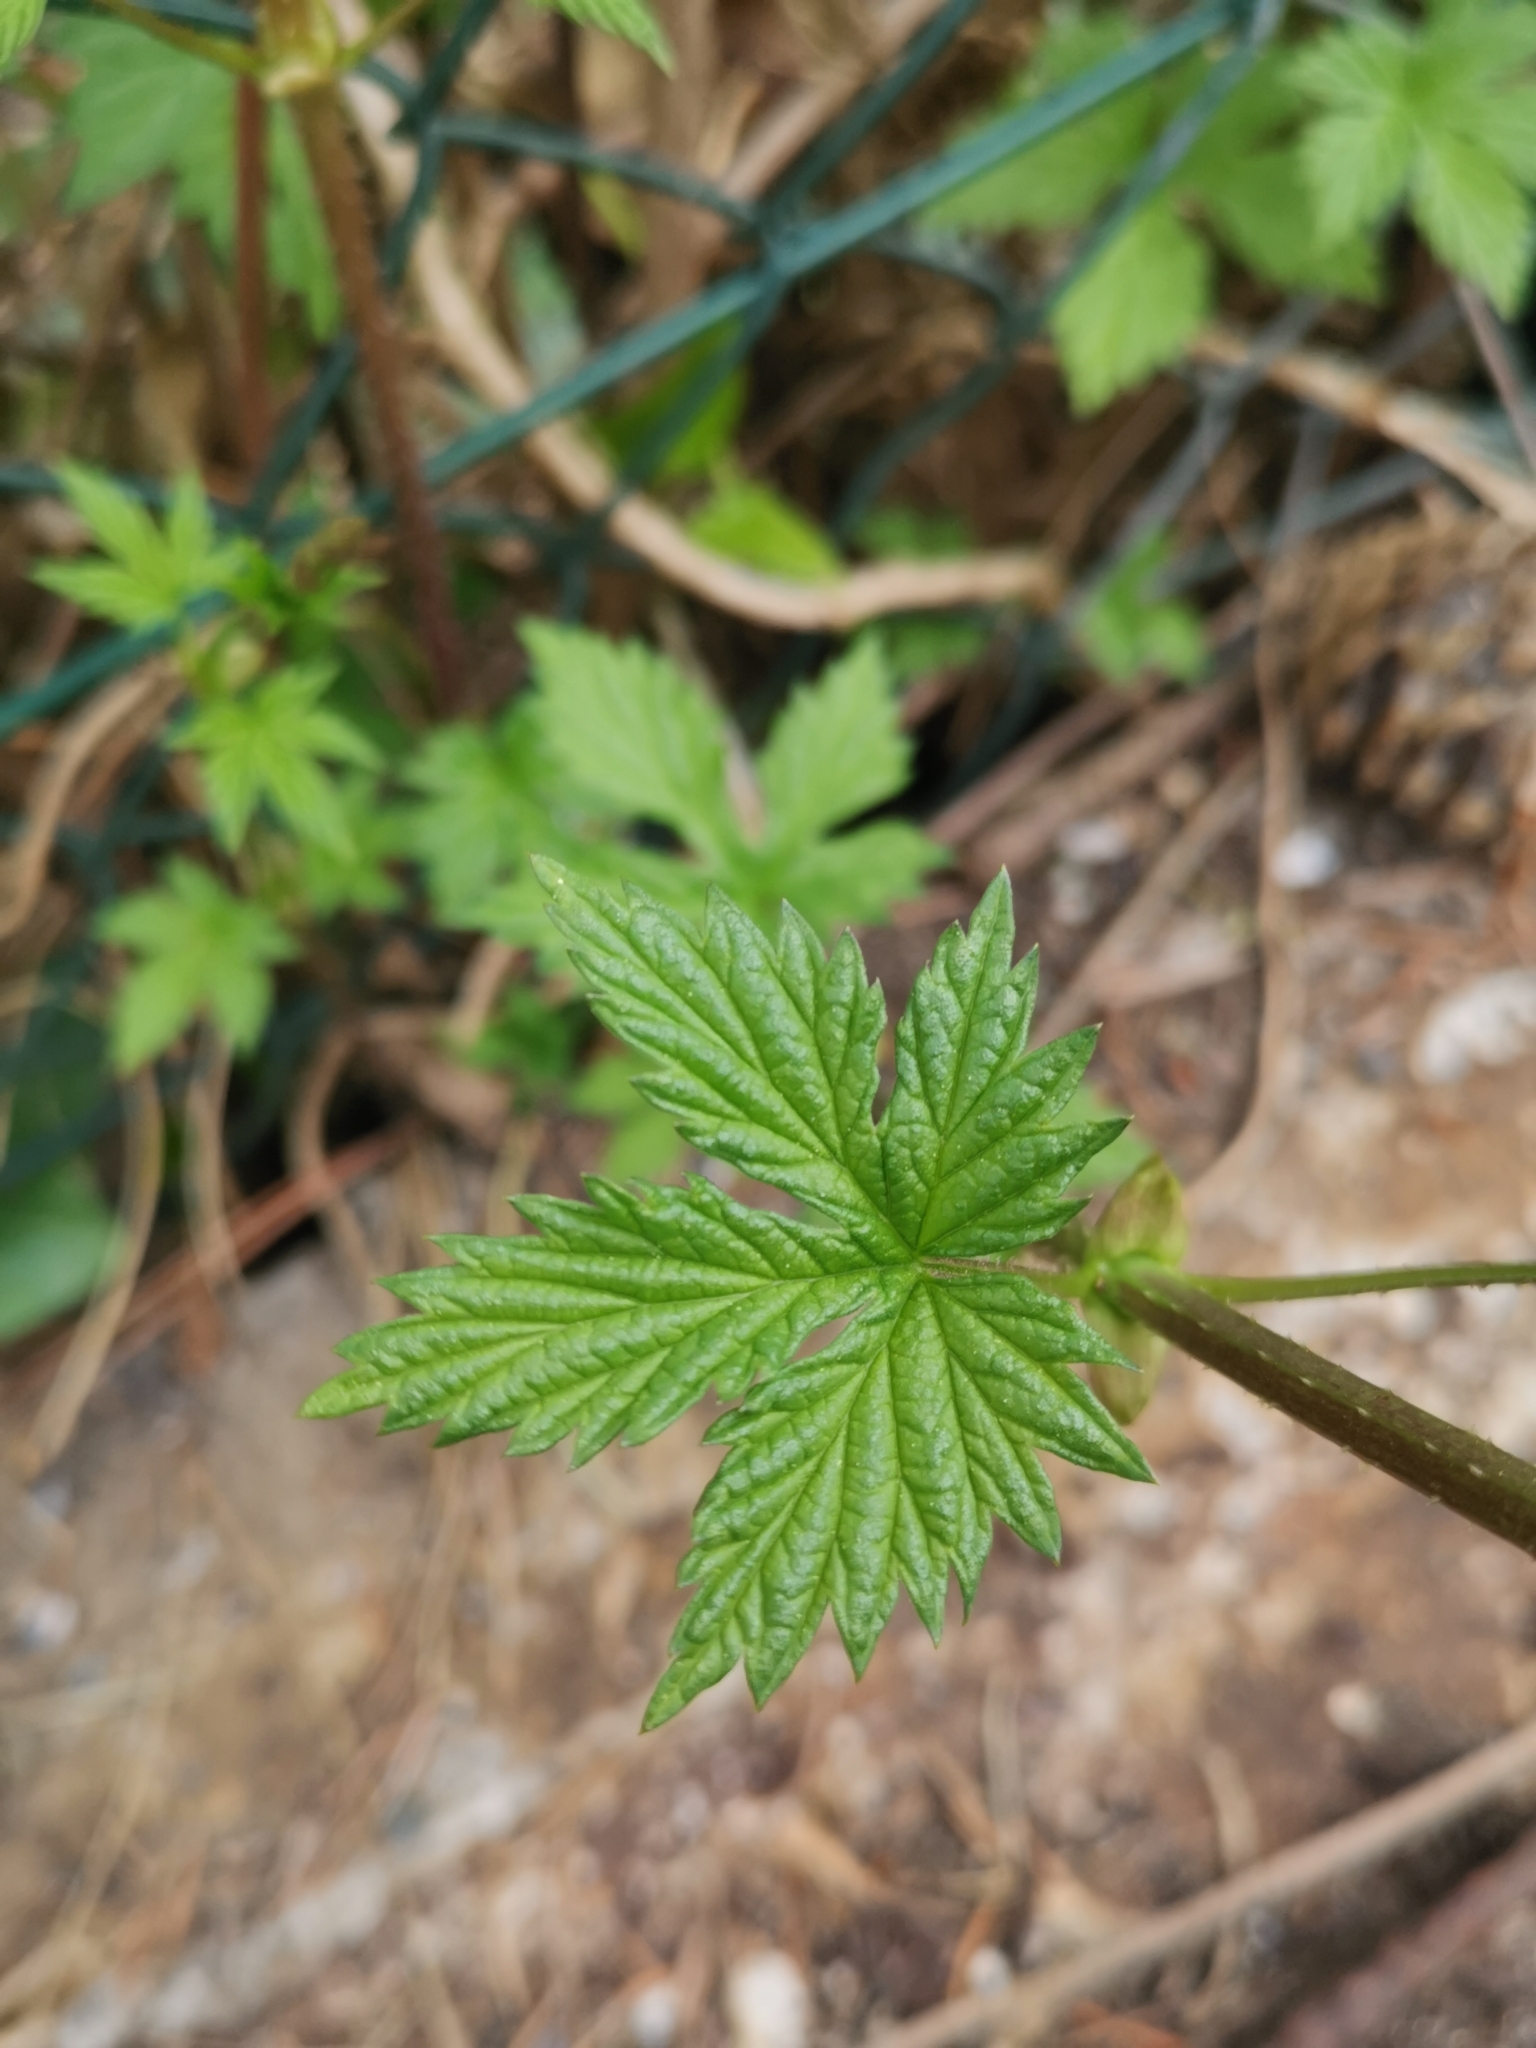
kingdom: Plantae
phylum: Tracheophyta
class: Magnoliopsida
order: Rosales
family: Cannabaceae
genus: Humulus
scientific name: Humulus lupulus
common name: Hop
